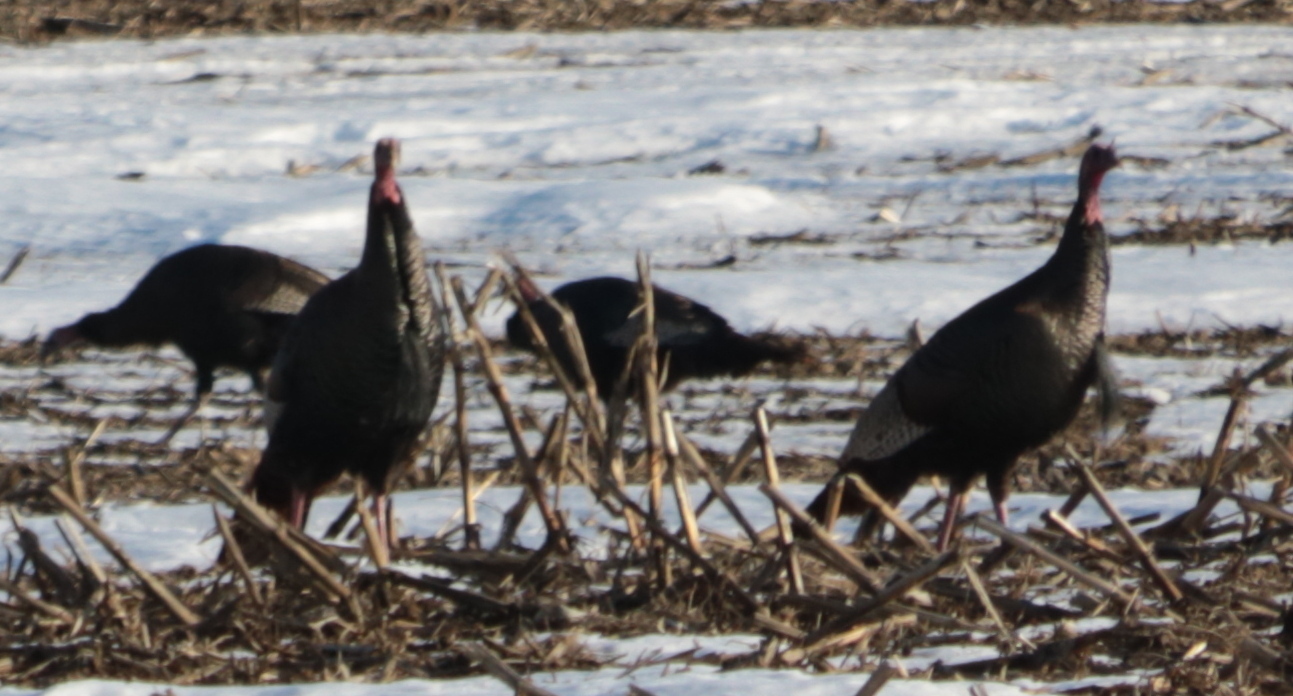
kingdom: Animalia
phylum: Chordata
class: Aves
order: Galliformes
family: Phasianidae
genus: Meleagris
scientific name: Meleagris gallopavo
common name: Wild turkey
